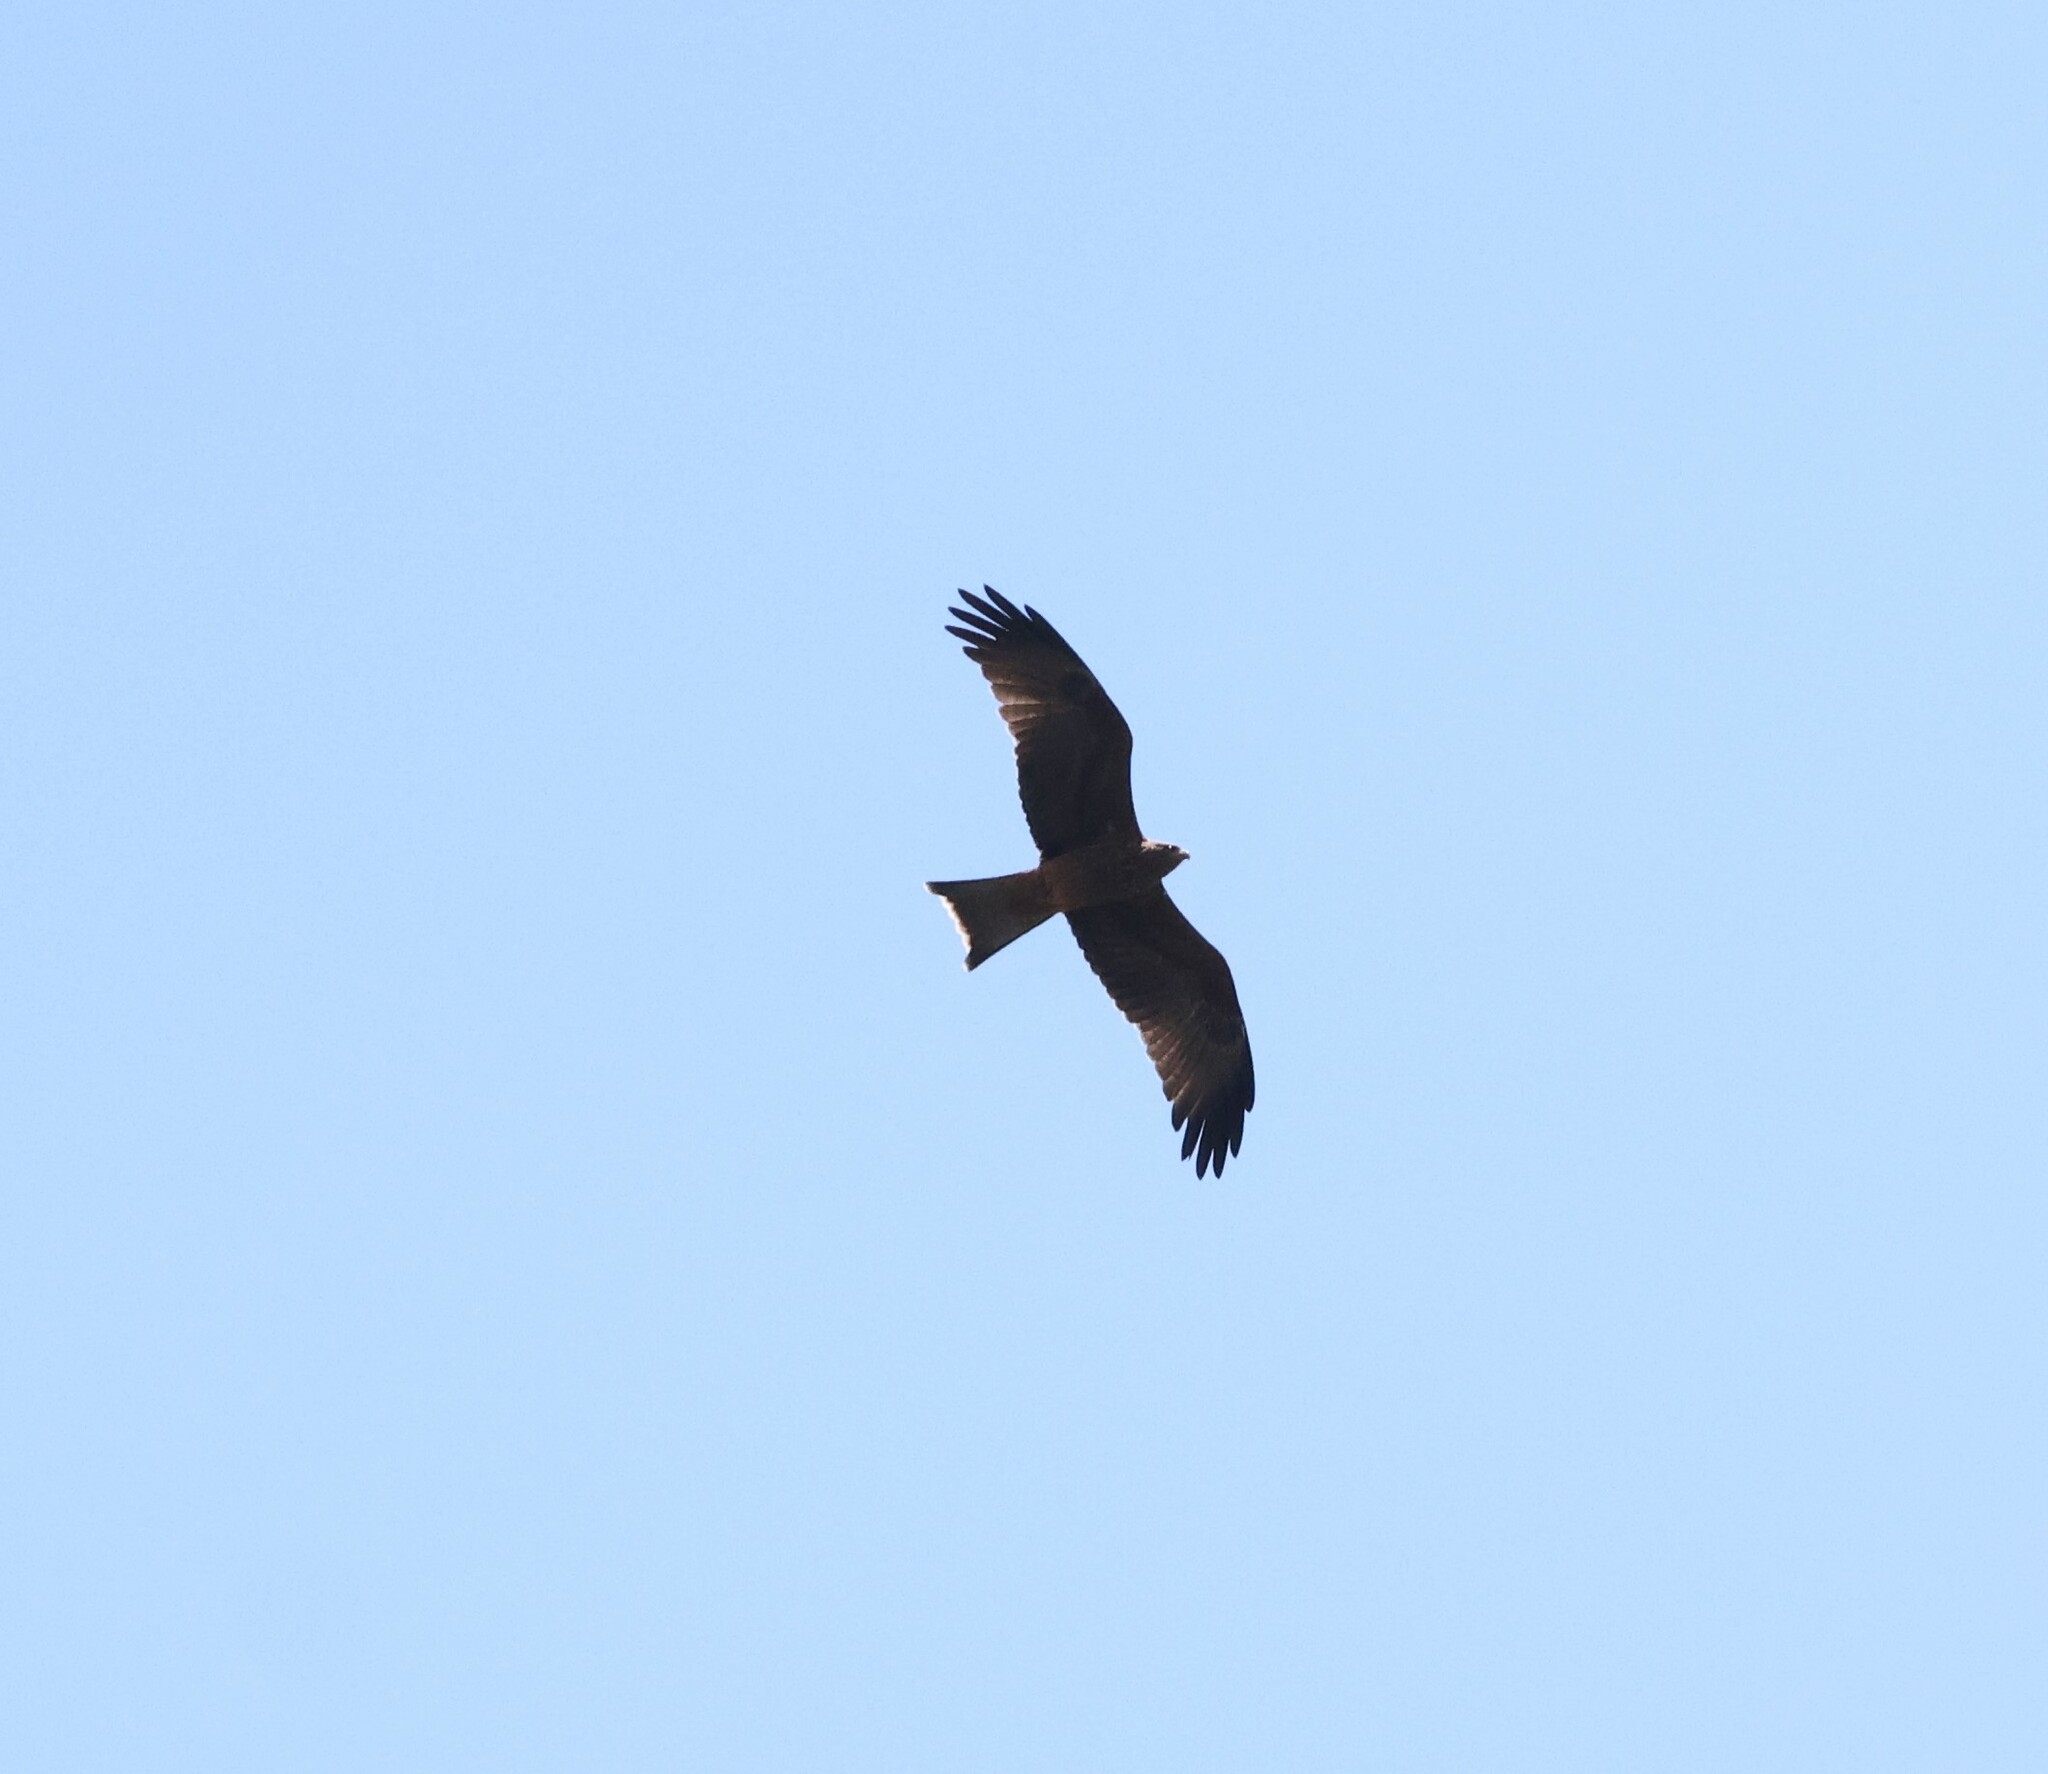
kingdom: Animalia
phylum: Chordata
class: Aves
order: Accipitriformes
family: Accipitridae
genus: Milvus
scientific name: Milvus migrans
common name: Black kite
